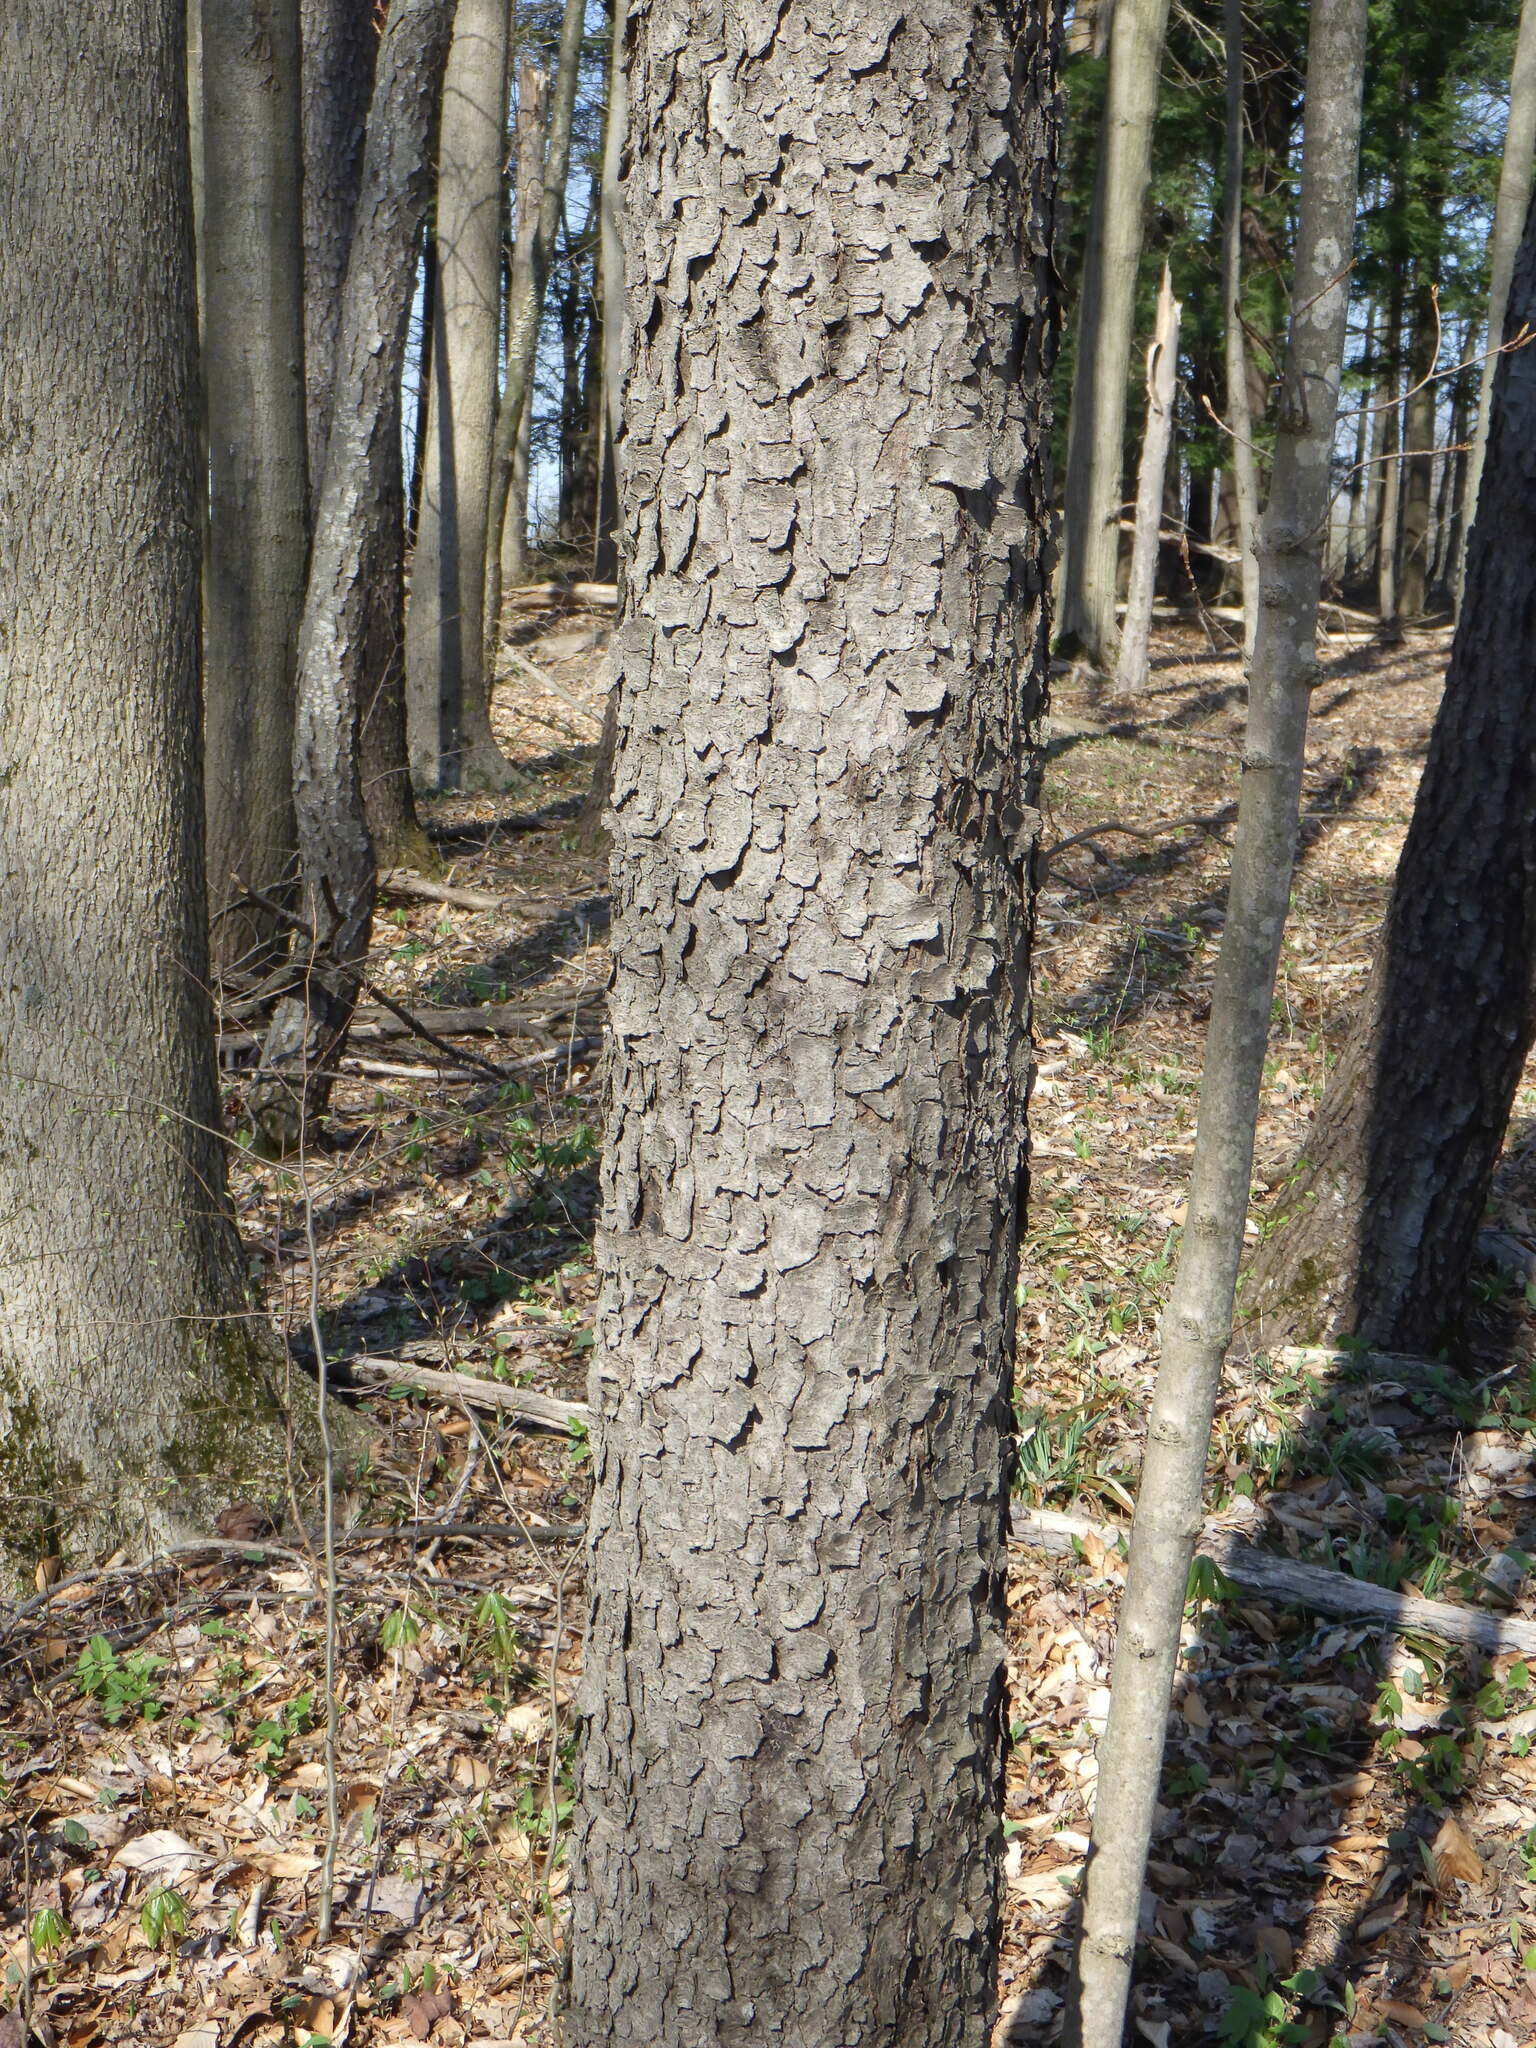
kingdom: Plantae
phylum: Tracheophyta
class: Magnoliopsida
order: Rosales
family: Rosaceae
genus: Prunus
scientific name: Prunus serotina
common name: Black cherry
